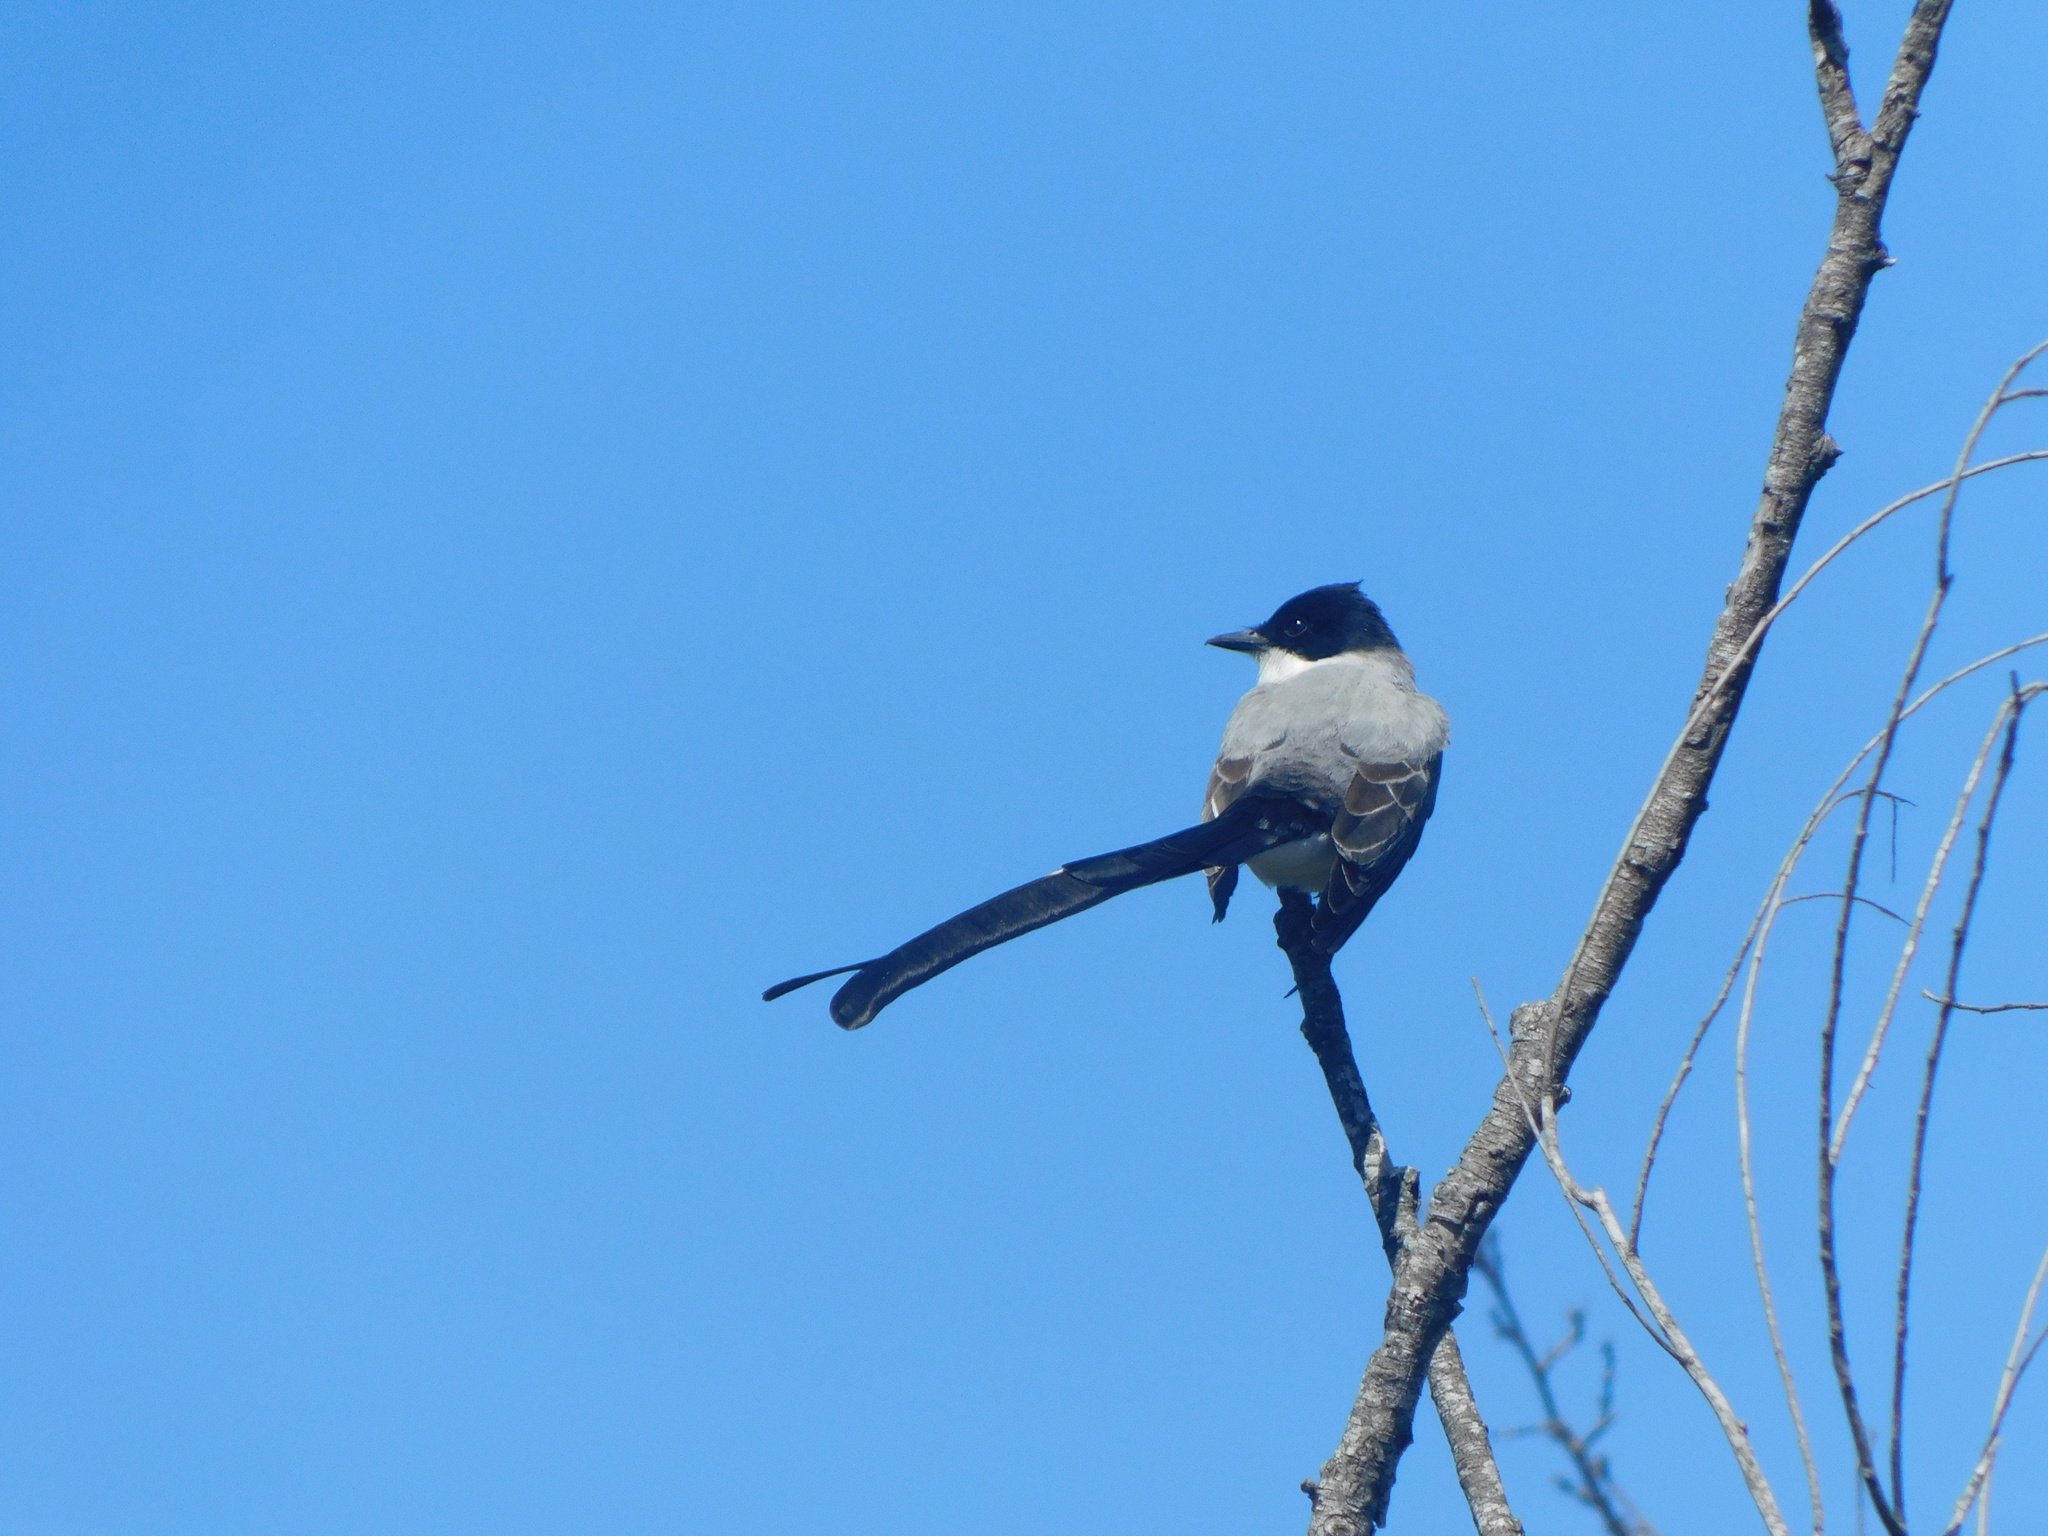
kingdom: Animalia
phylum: Chordata
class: Aves
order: Passeriformes
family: Tyrannidae
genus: Tyrannus
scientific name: Tyrannus savana
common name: Fork-tailed flycatcher
